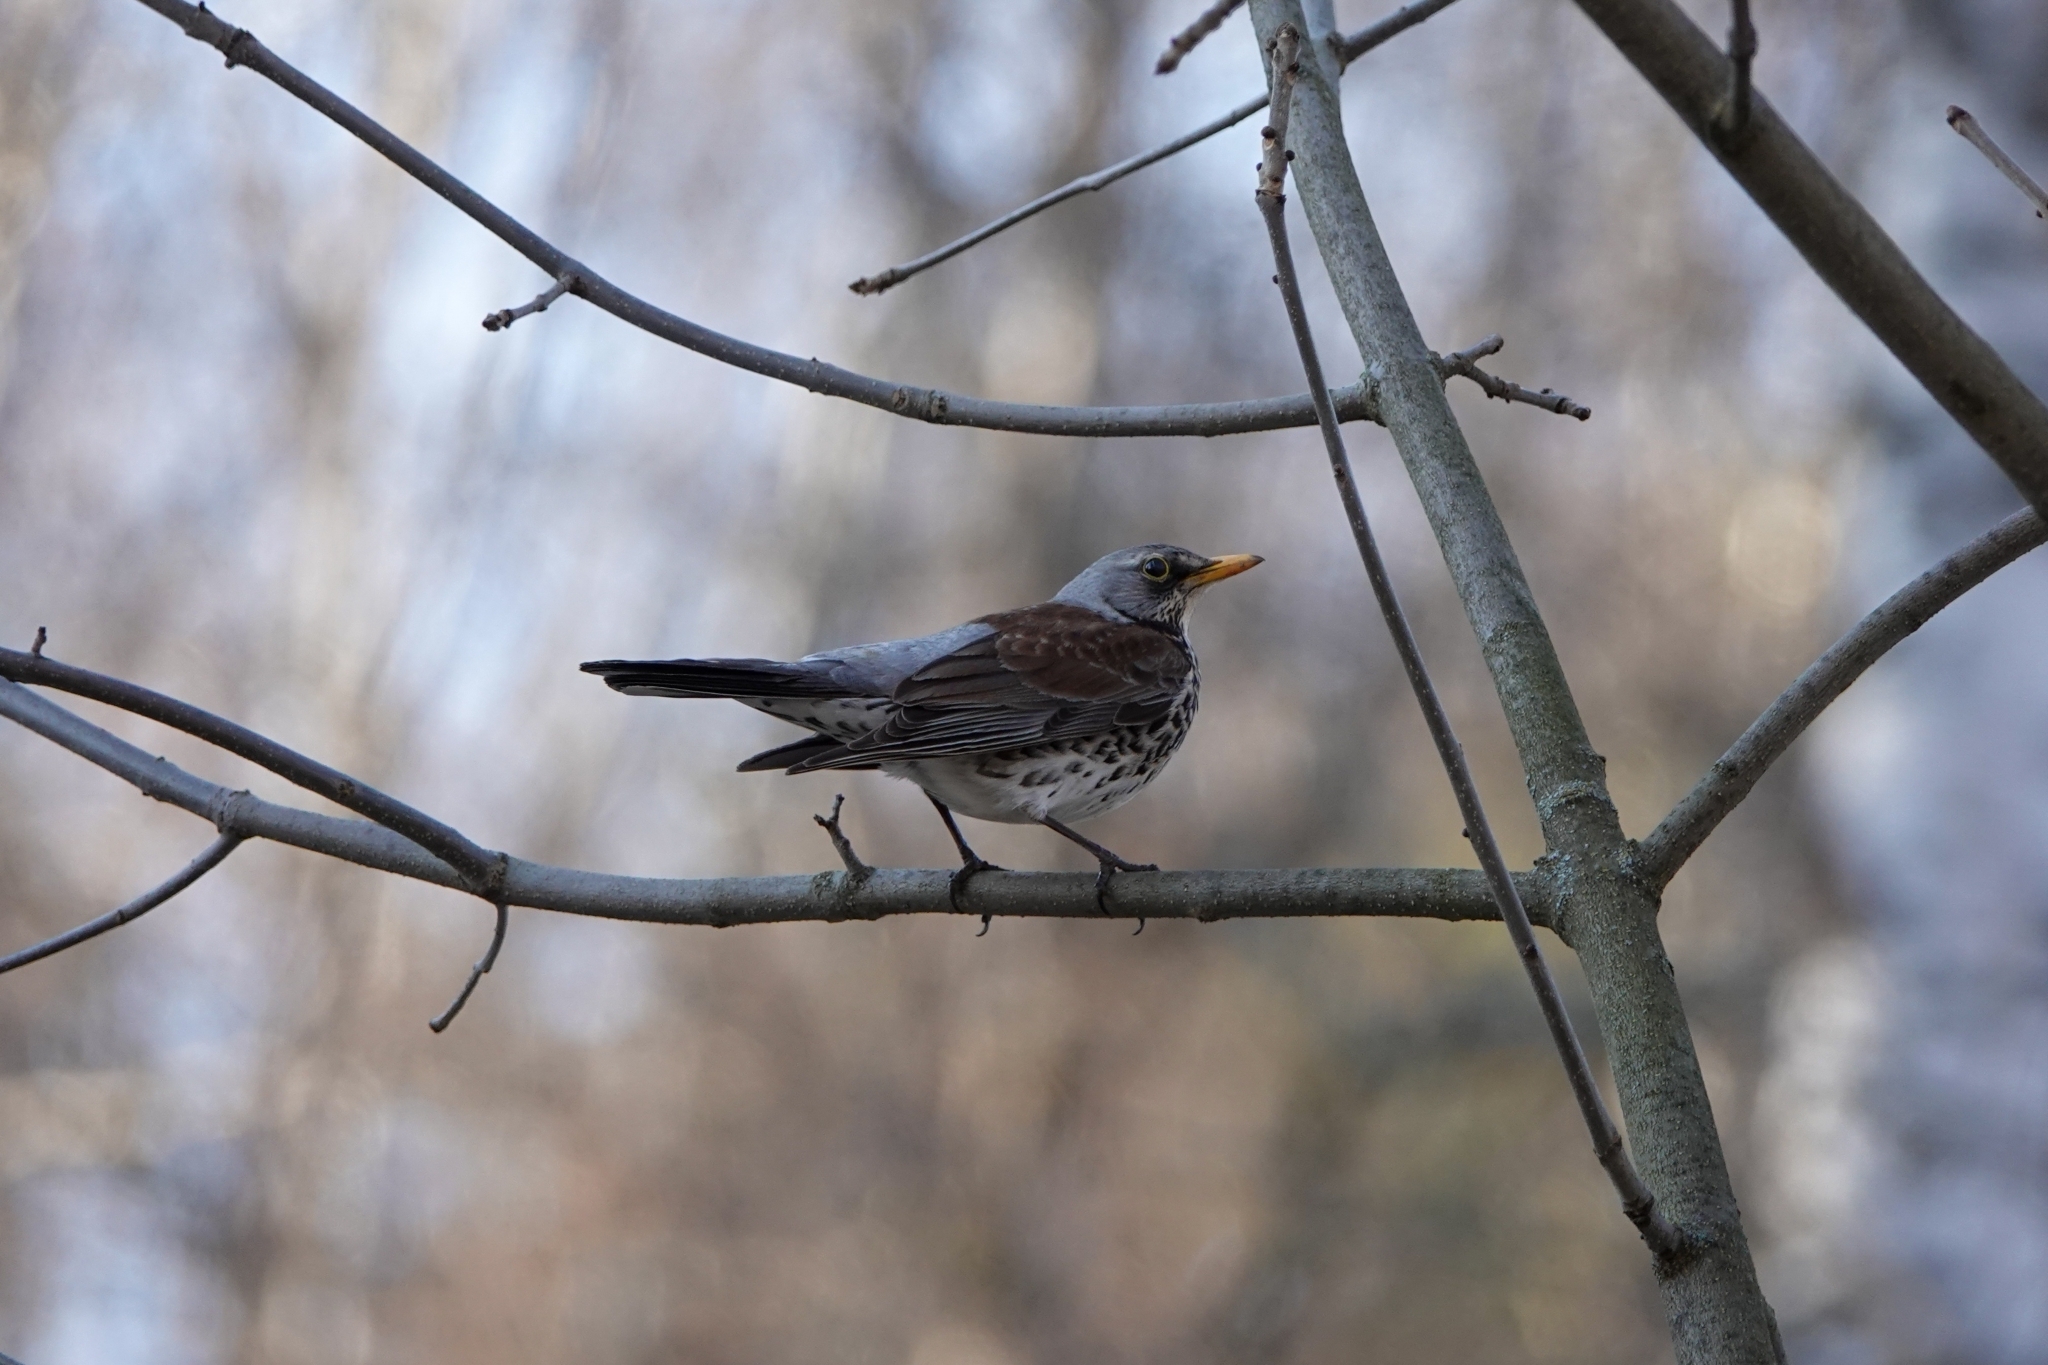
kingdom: Animalia
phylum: Chordata
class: Aves
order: Passeriformes
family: Turdidae
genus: Turdus
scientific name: Turdus pilaris
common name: Fieldfare
